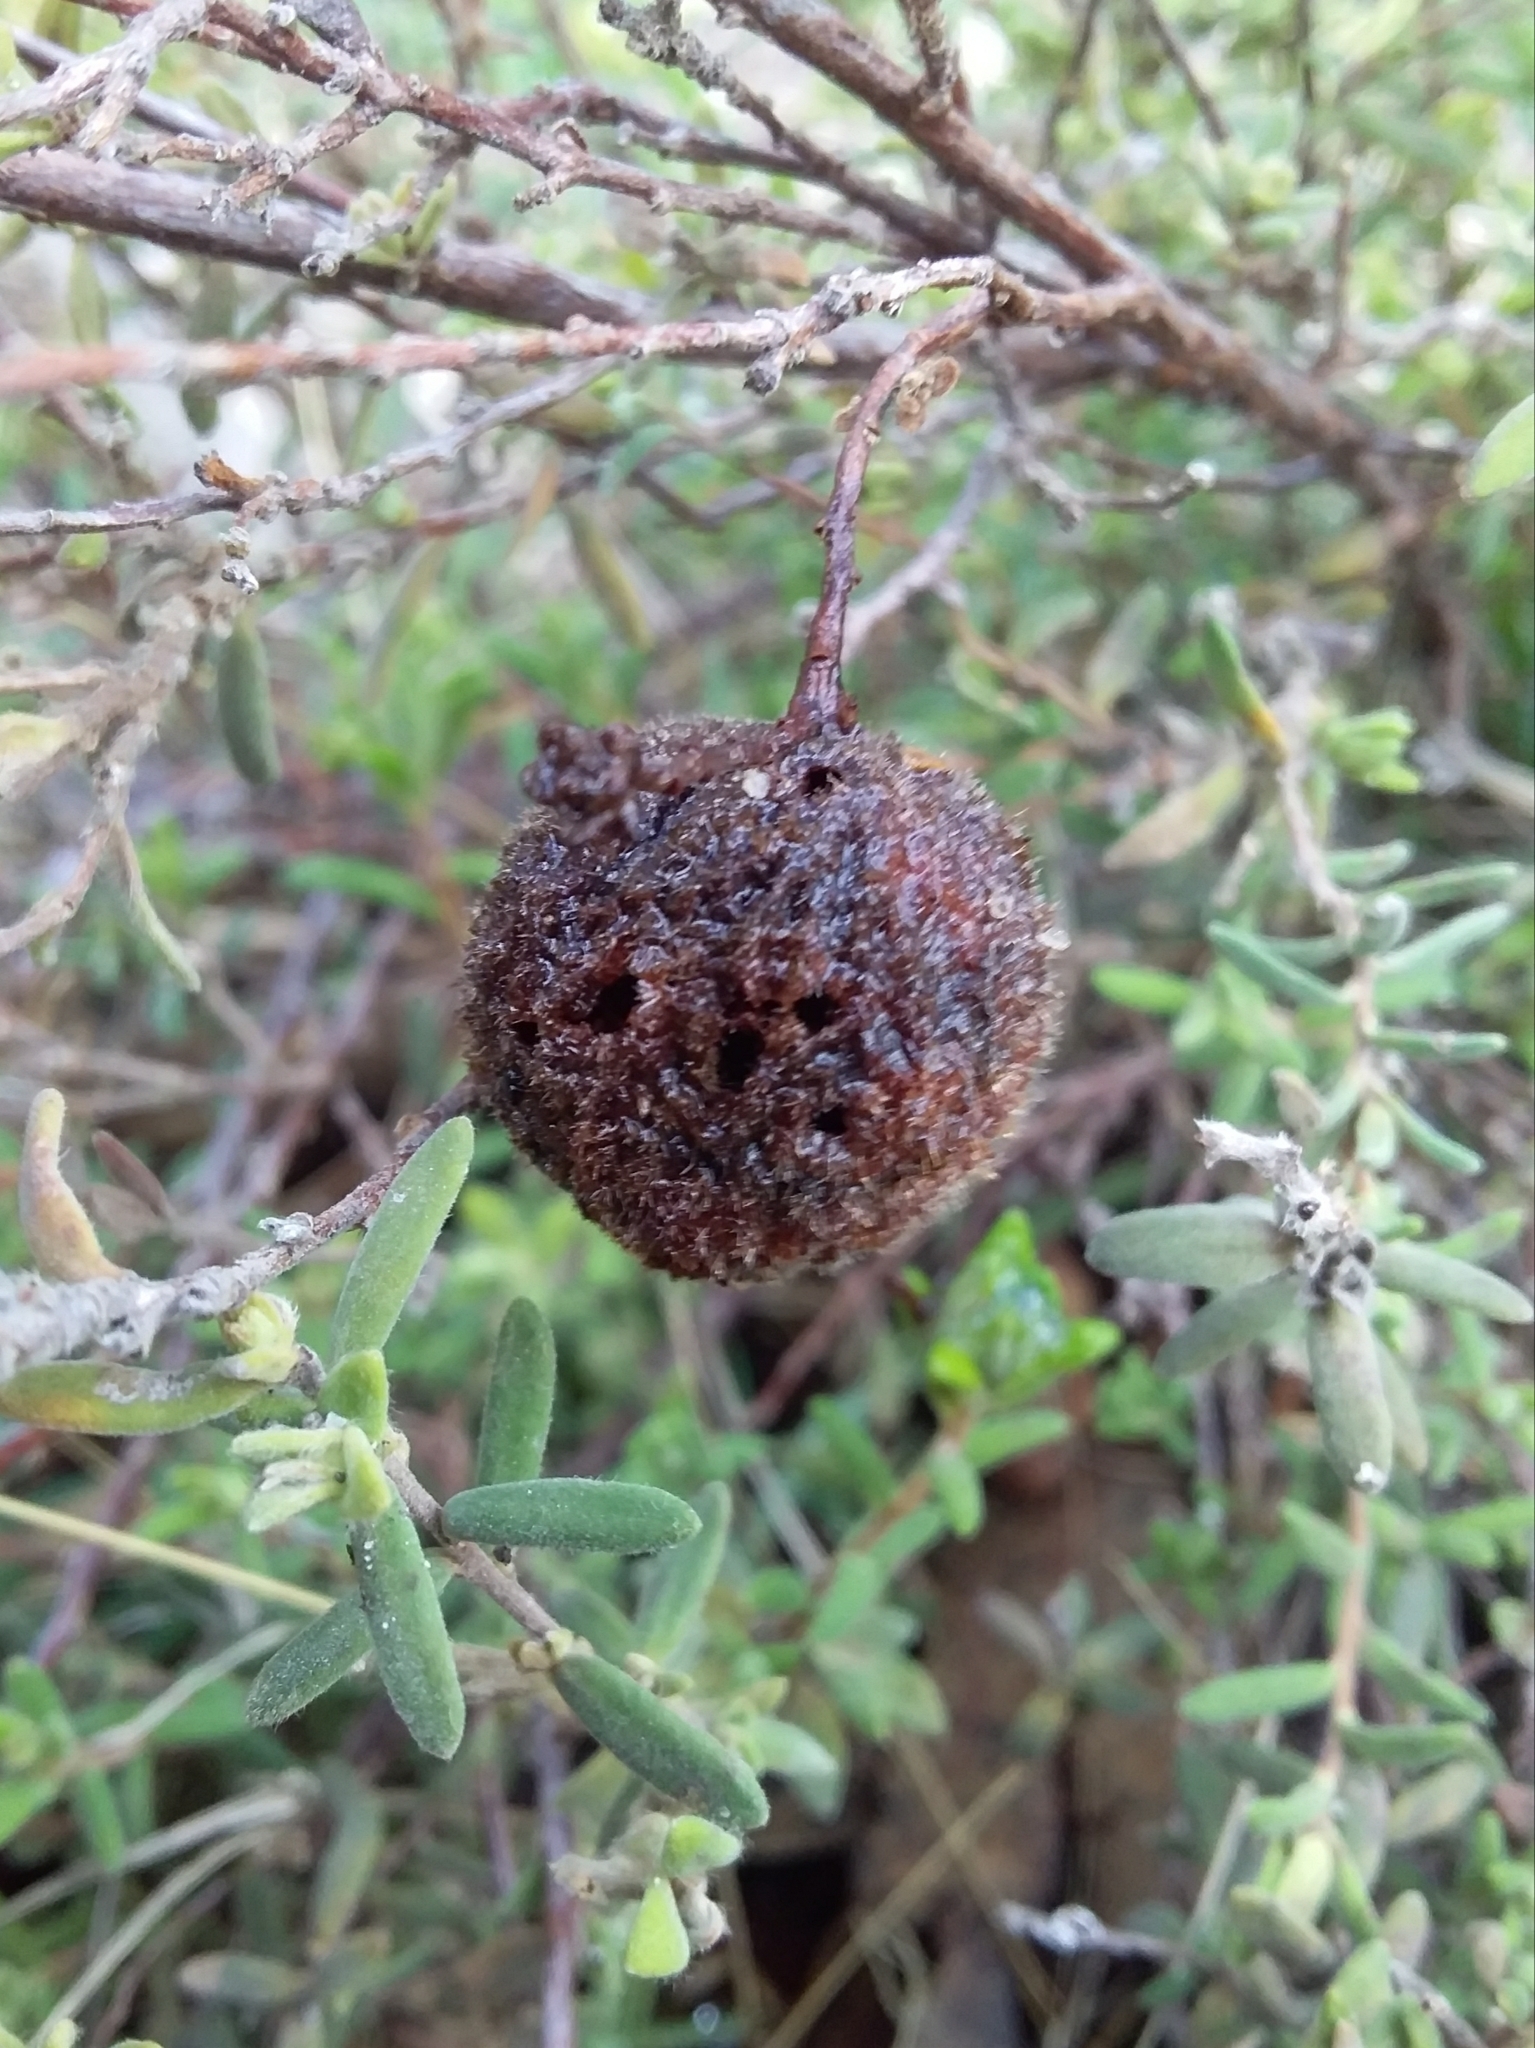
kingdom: Plantae
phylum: Tracheophyta
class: Magnoliopsida
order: Dilleniales
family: Dilleniaceae
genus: Hibbertia
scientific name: Hibbertia crinita
